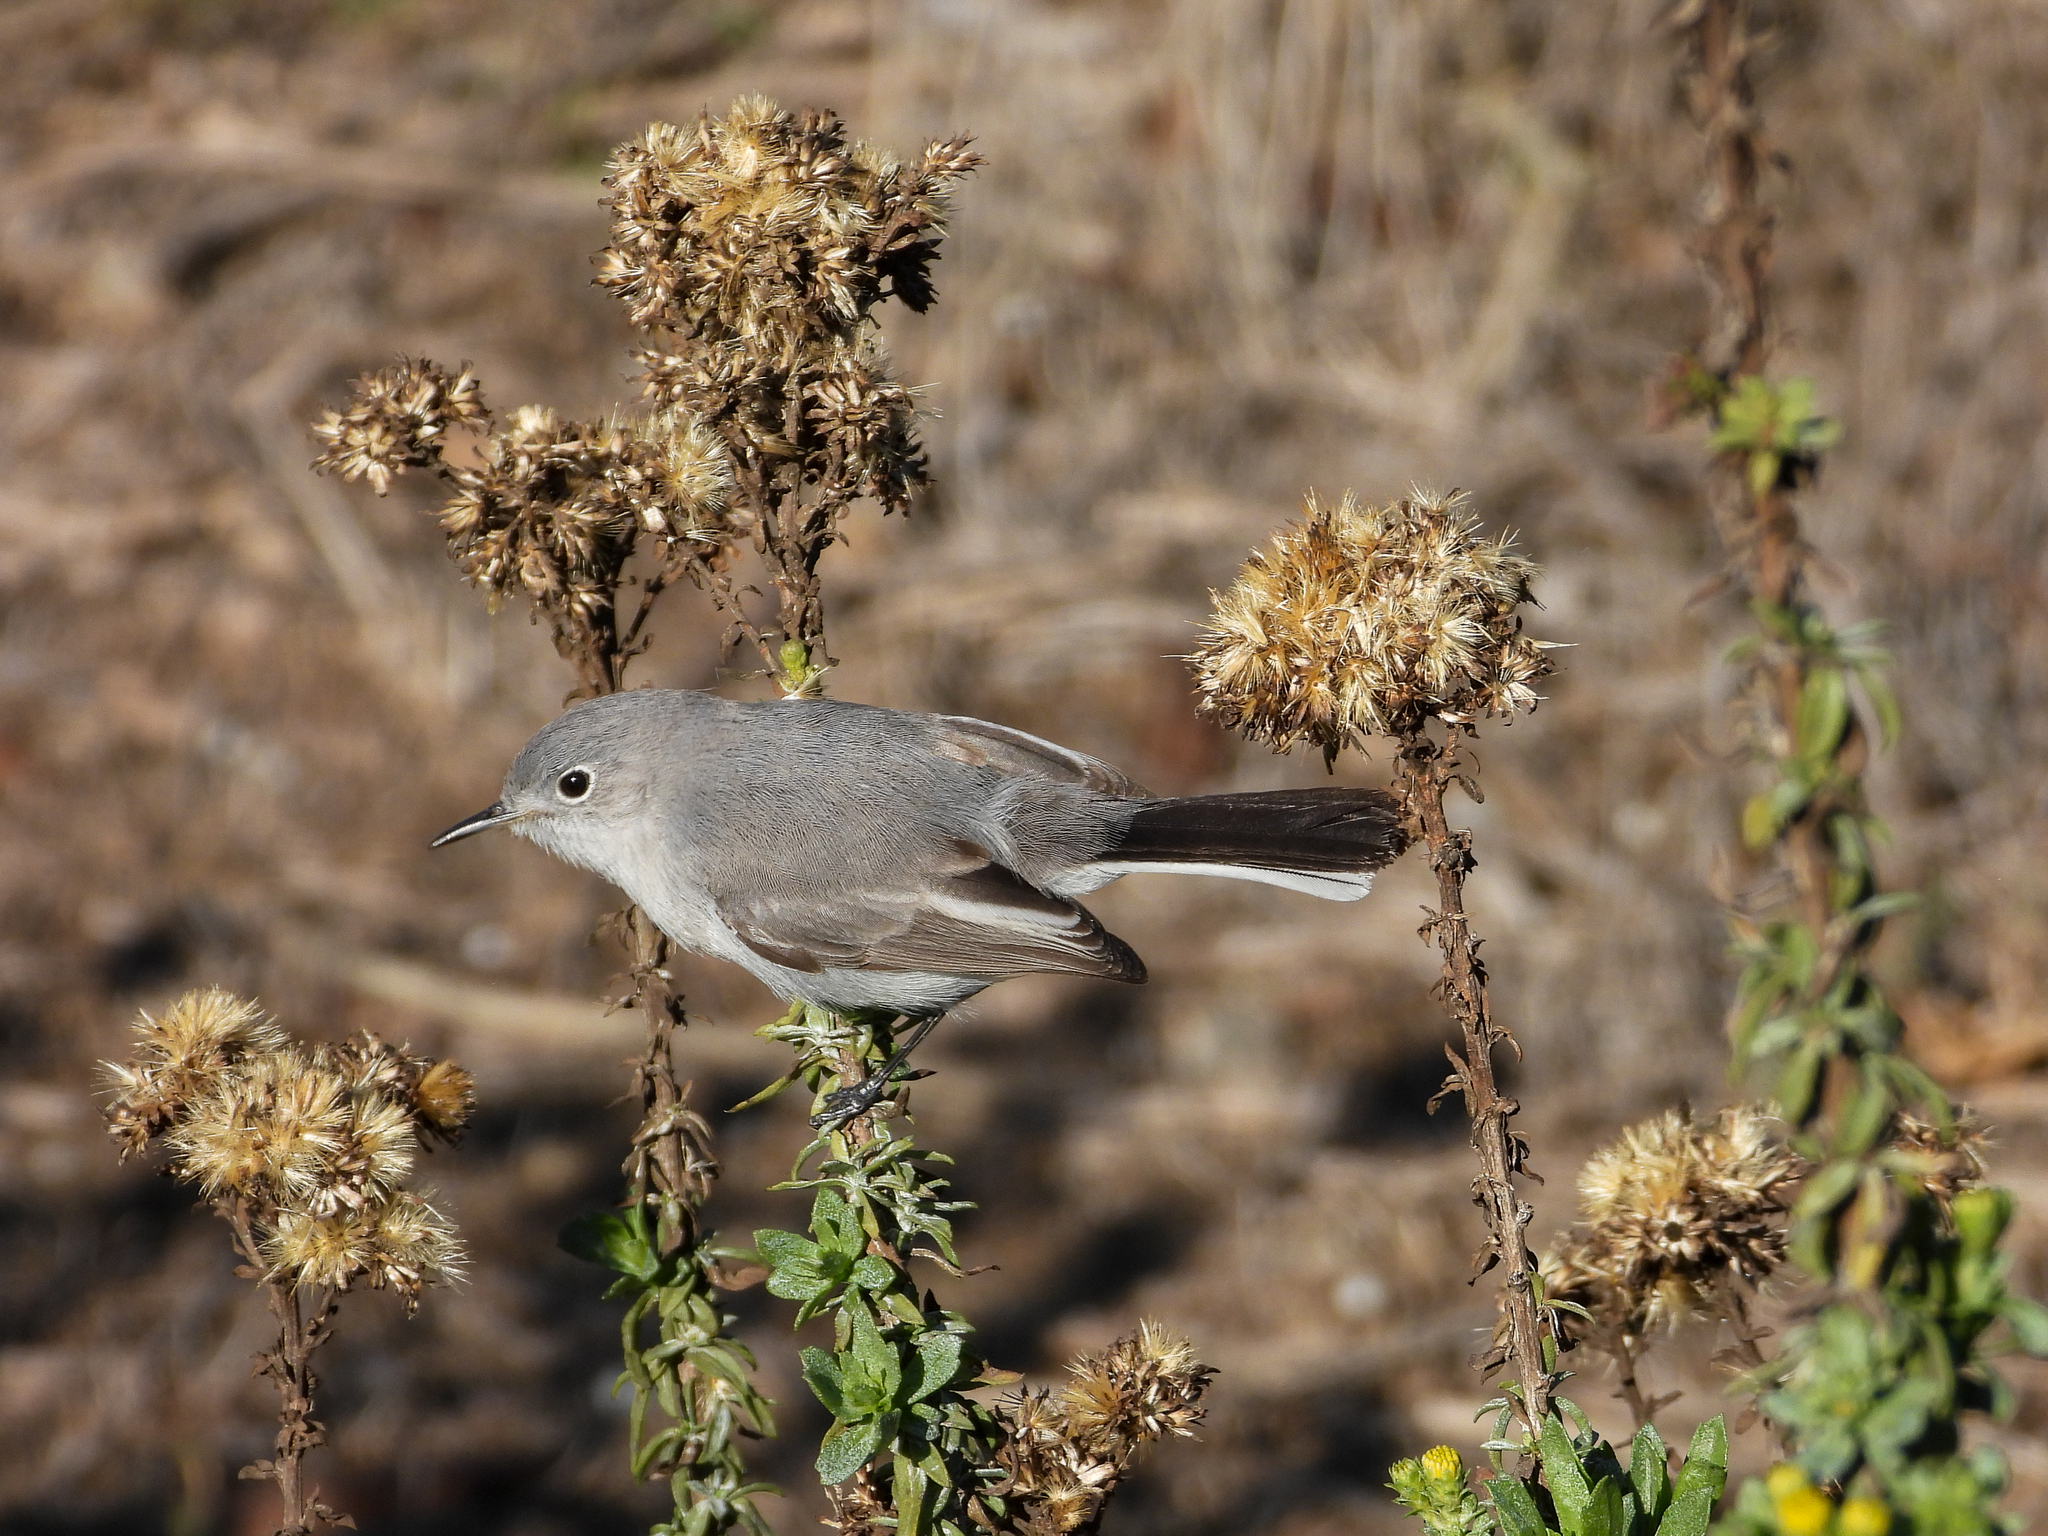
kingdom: Animalia
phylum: Chordata
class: Aves
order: Passeriformes
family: Polioptilidae
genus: Polioptila
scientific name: Polioptila caerulea
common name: Blue-gray gnatcatcher
